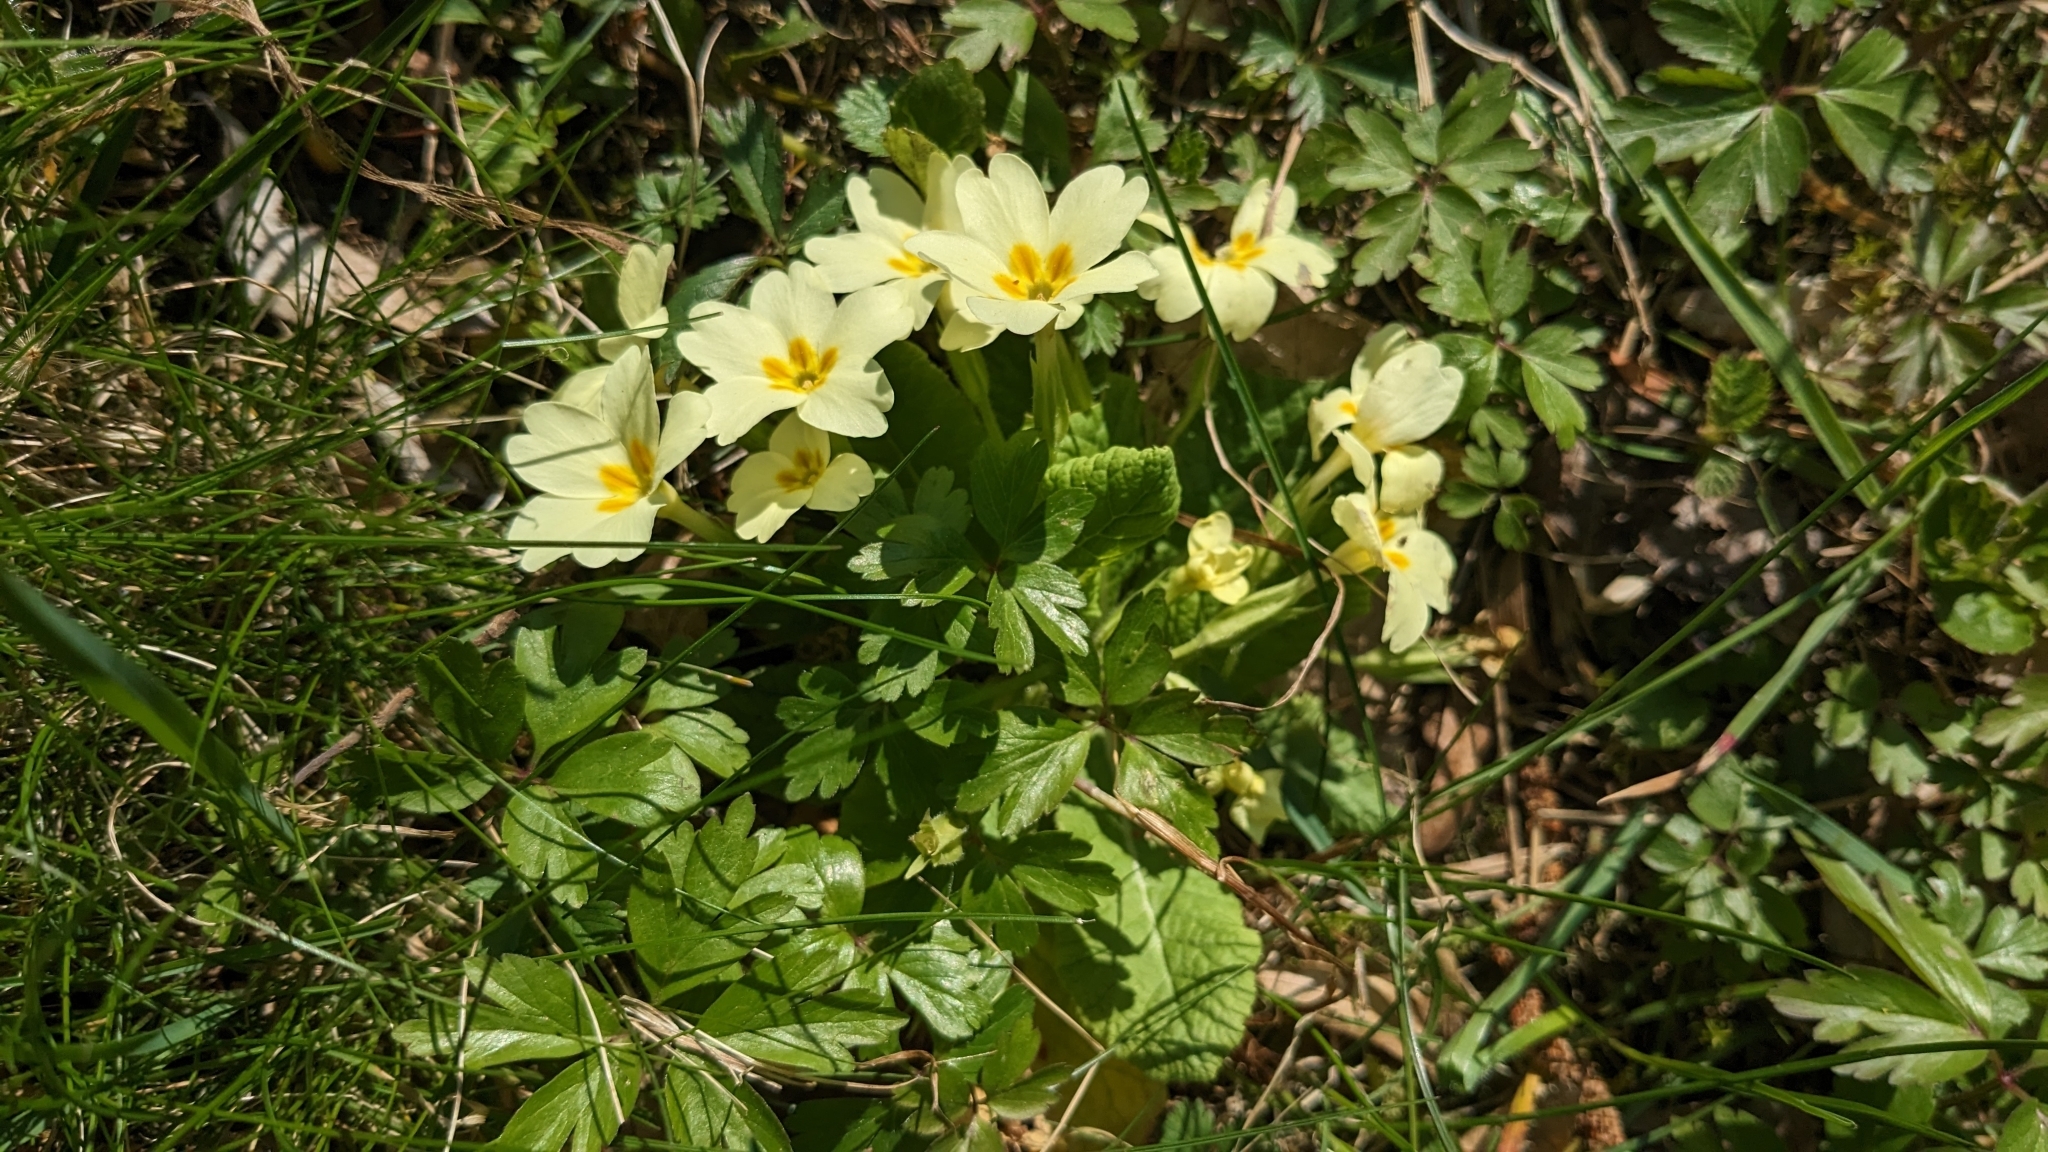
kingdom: Plantae
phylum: Tracheophyta
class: Magnoliopsida
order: Ericales
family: Primulaceae
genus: Primula
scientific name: Primula vulgaris
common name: Primrose
